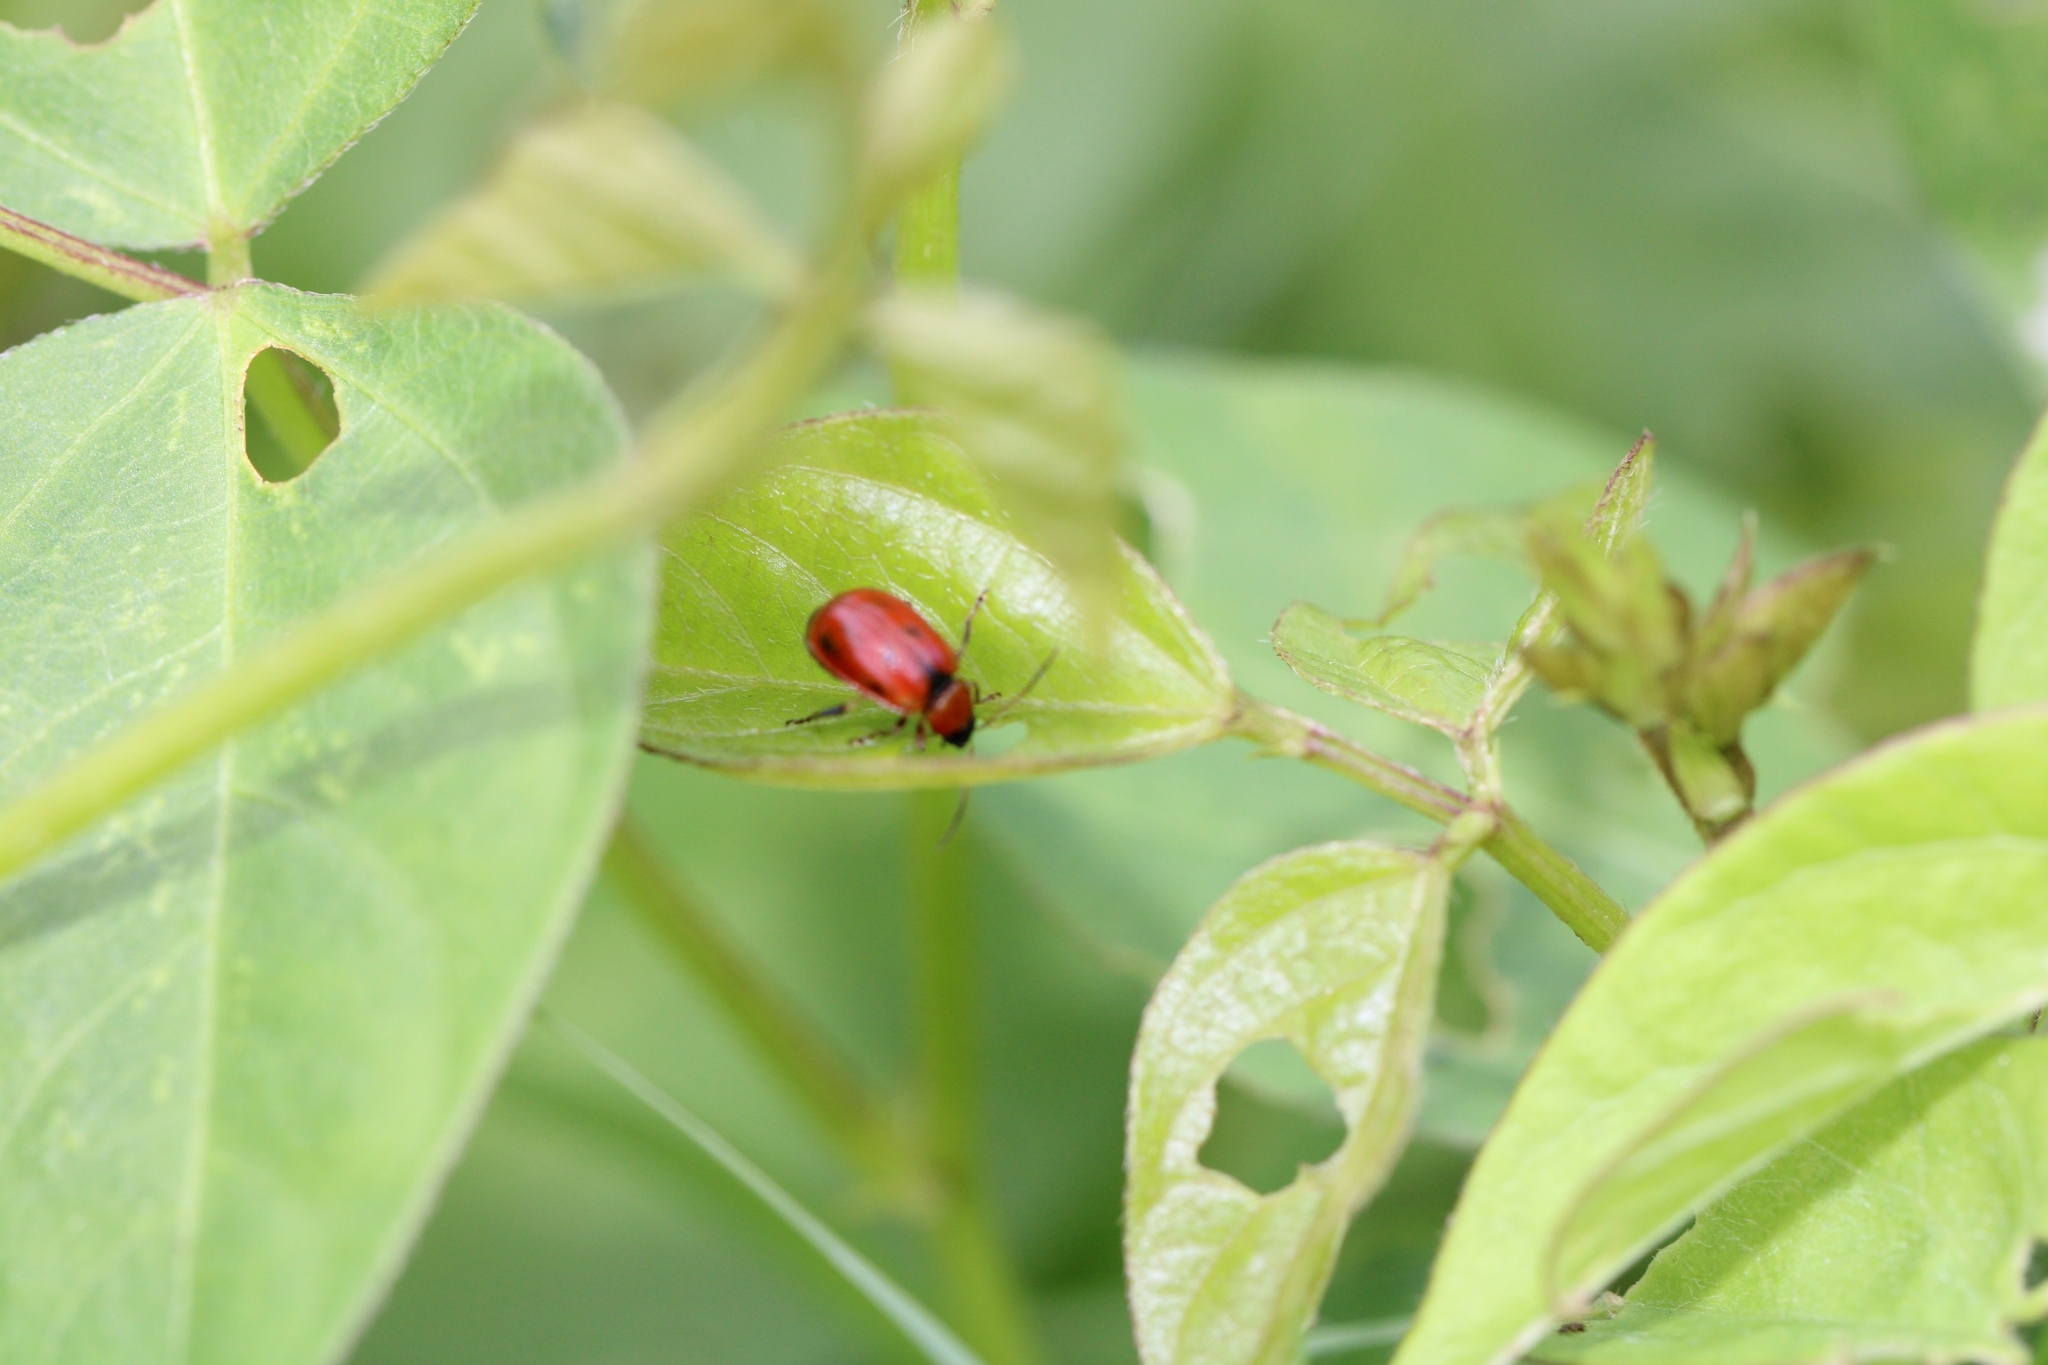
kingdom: Animalia
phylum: Arthropoda
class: Insecta
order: Coleoptera
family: Chrysomelidae
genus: Cerotoma
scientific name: Cerotoma trifurcata
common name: Bean leaf beetle
